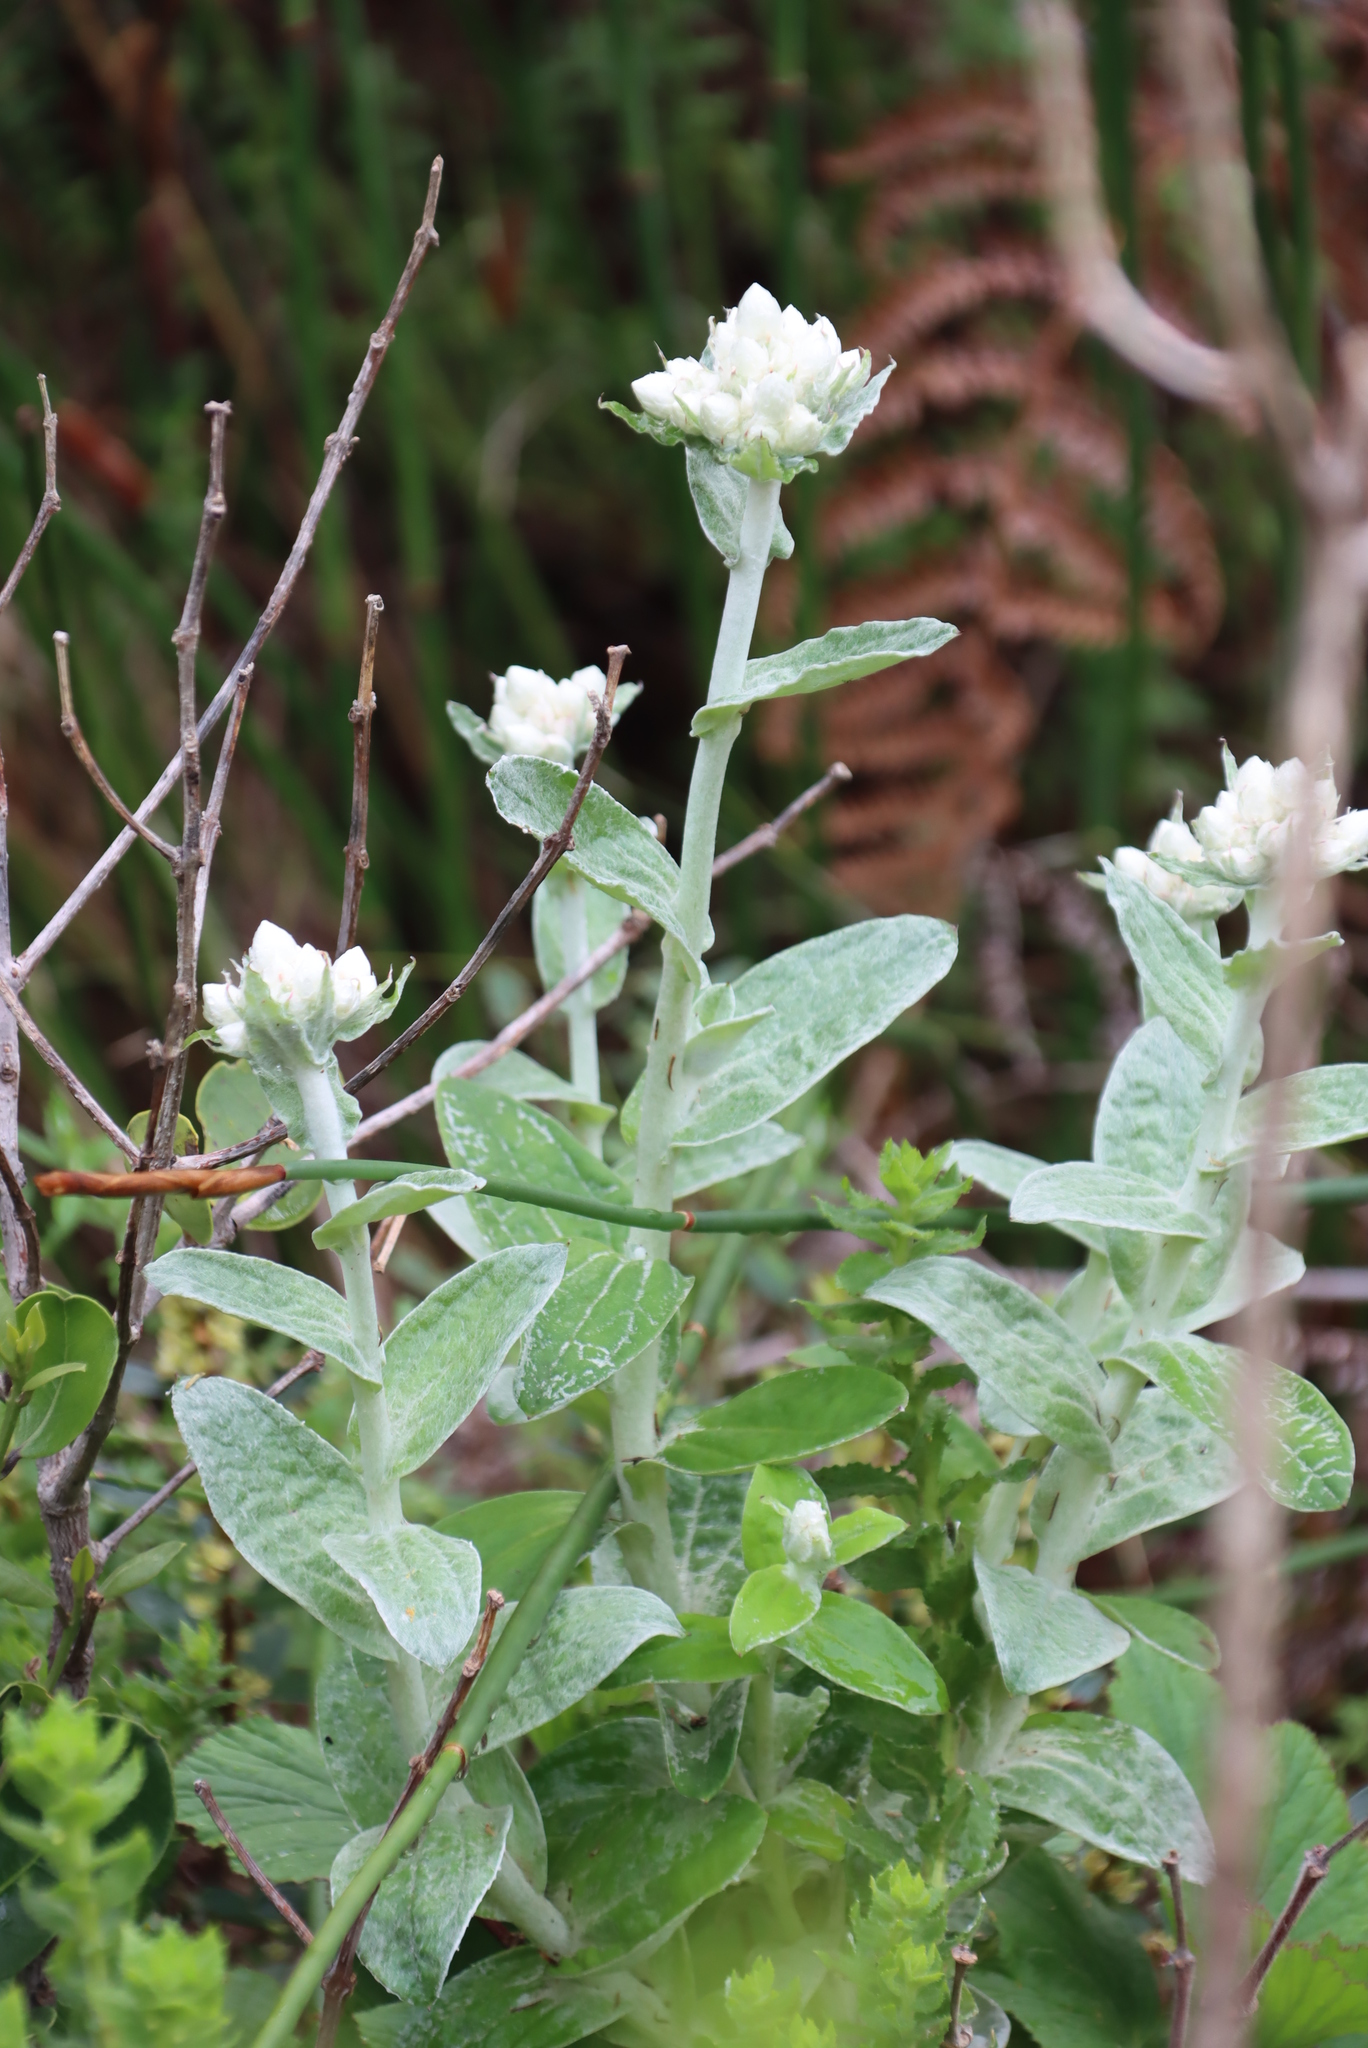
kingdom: Plantae
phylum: Tracheophyta
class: Magnoliopsida
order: Asterales
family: Asteraceae
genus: Helichrysum
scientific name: Helichrysum fruticans
